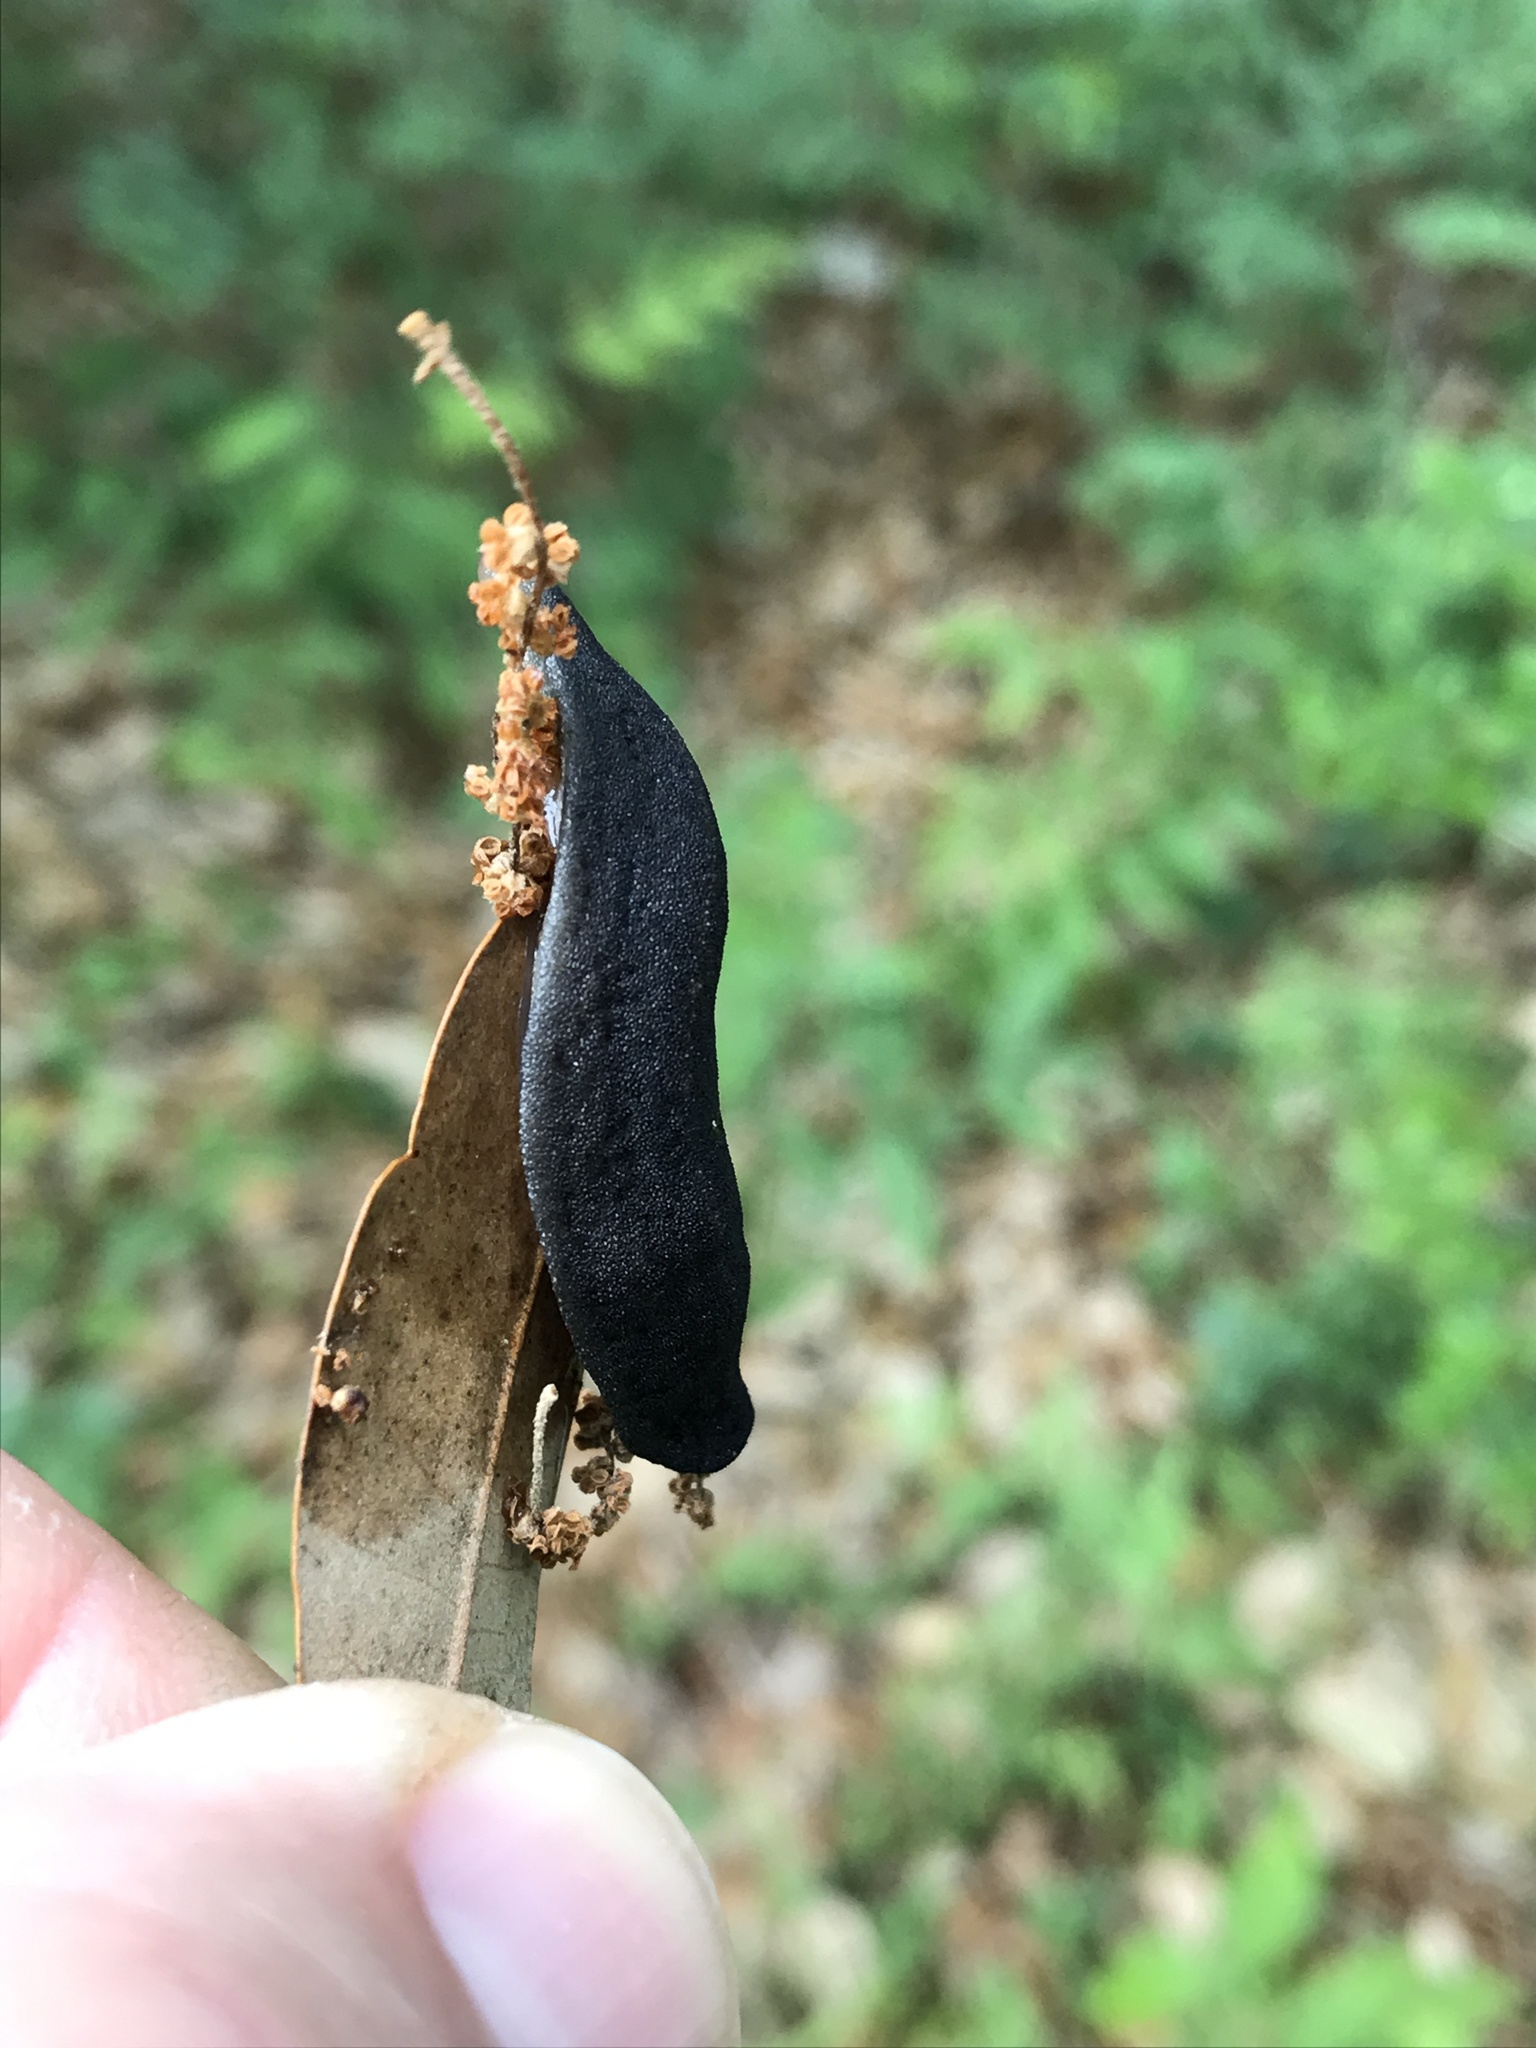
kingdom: Animalia
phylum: Mollusca
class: Gastropoda
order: Systellommatophora
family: Veronicellidae
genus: Belocaulus
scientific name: Belocaulus angustipes
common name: Black velvet leatherleaf slug
